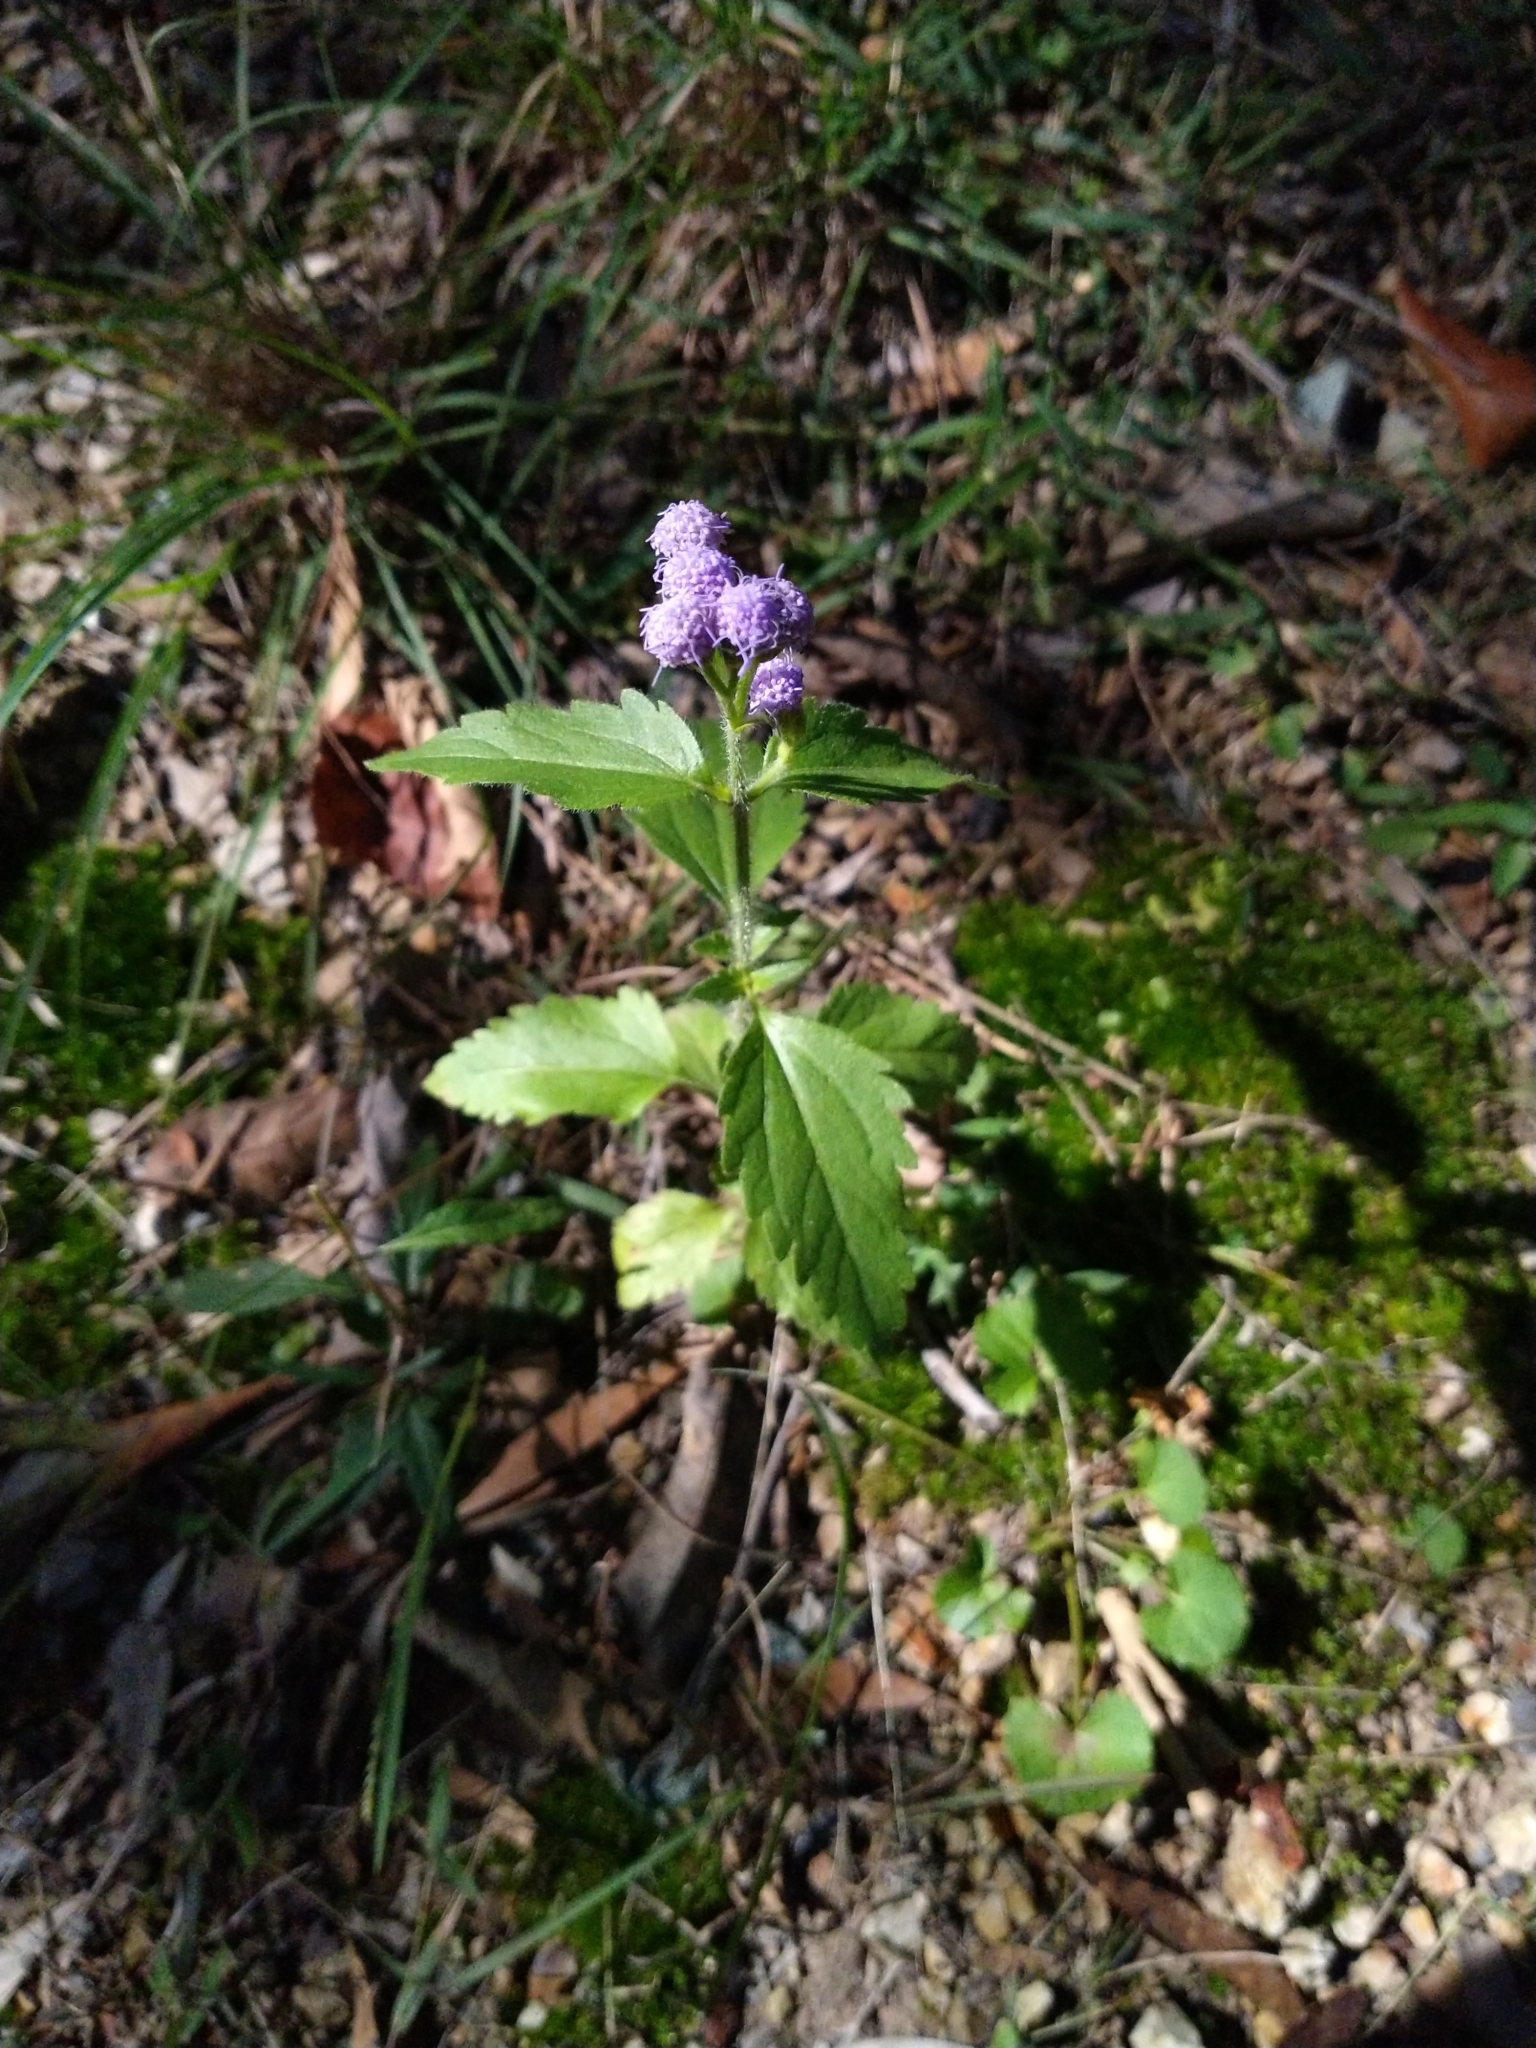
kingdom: Plantae
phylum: Tracheophyta
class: Magnoliopsida
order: Asterales
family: Asteraceae
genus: Praxelis
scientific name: Praxelis clematidea
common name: Praxelis
